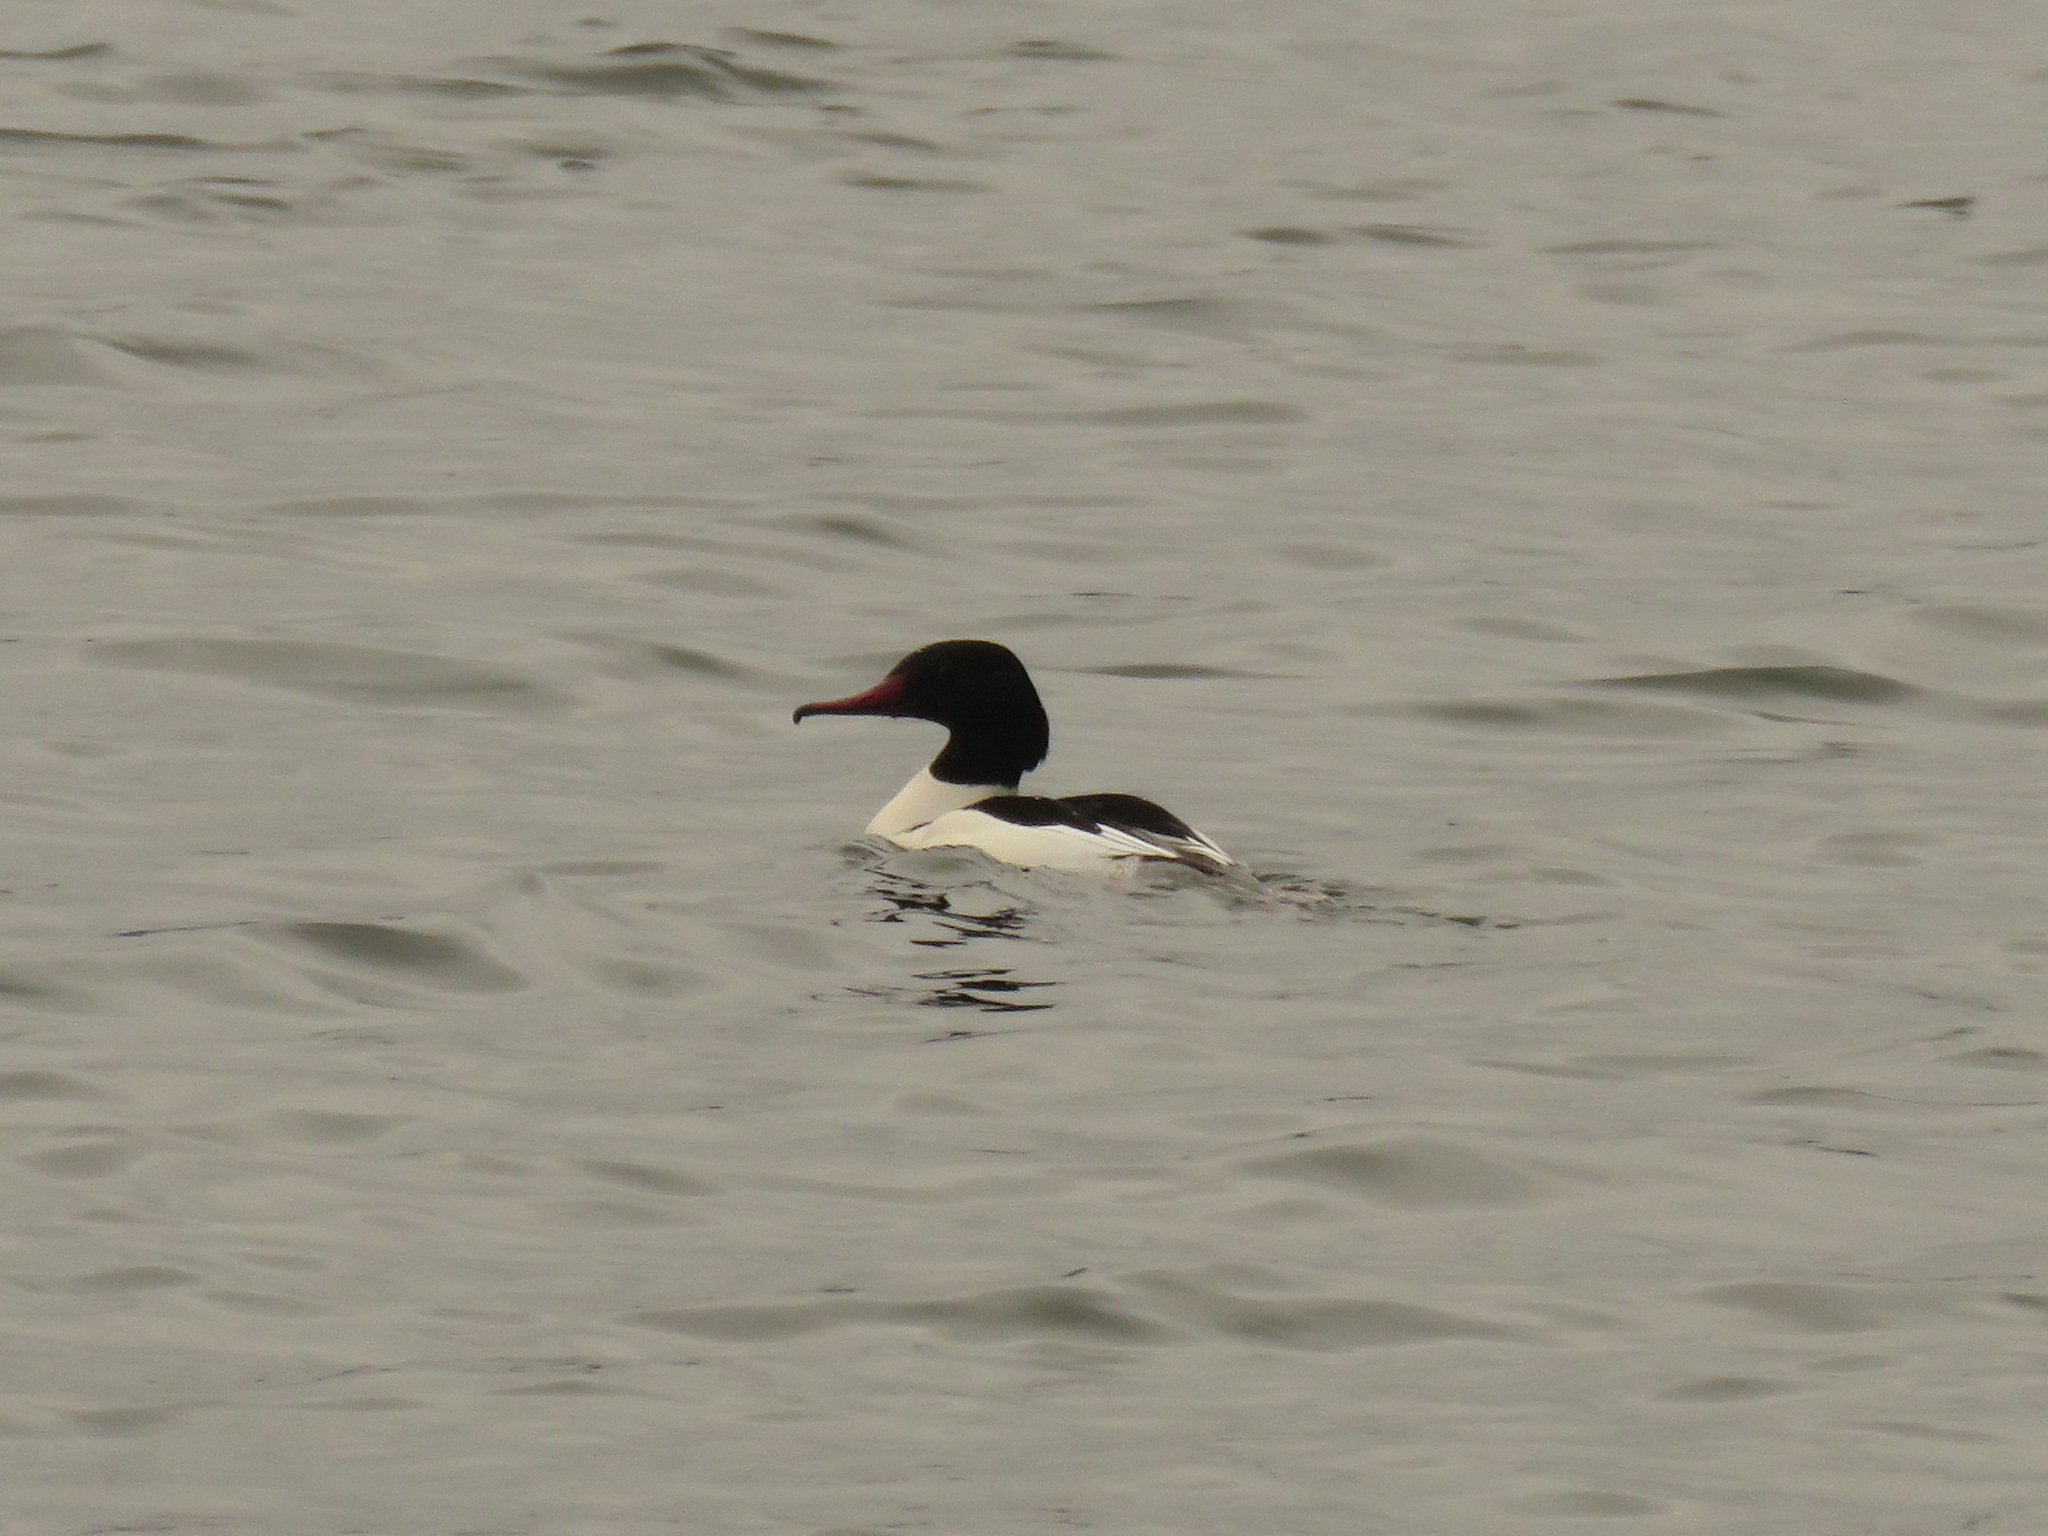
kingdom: Animalia
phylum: Chordata
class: Aves
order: Anseriformes
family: Anatidae
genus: Mergus
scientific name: Mergus merganser
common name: Common merganser
